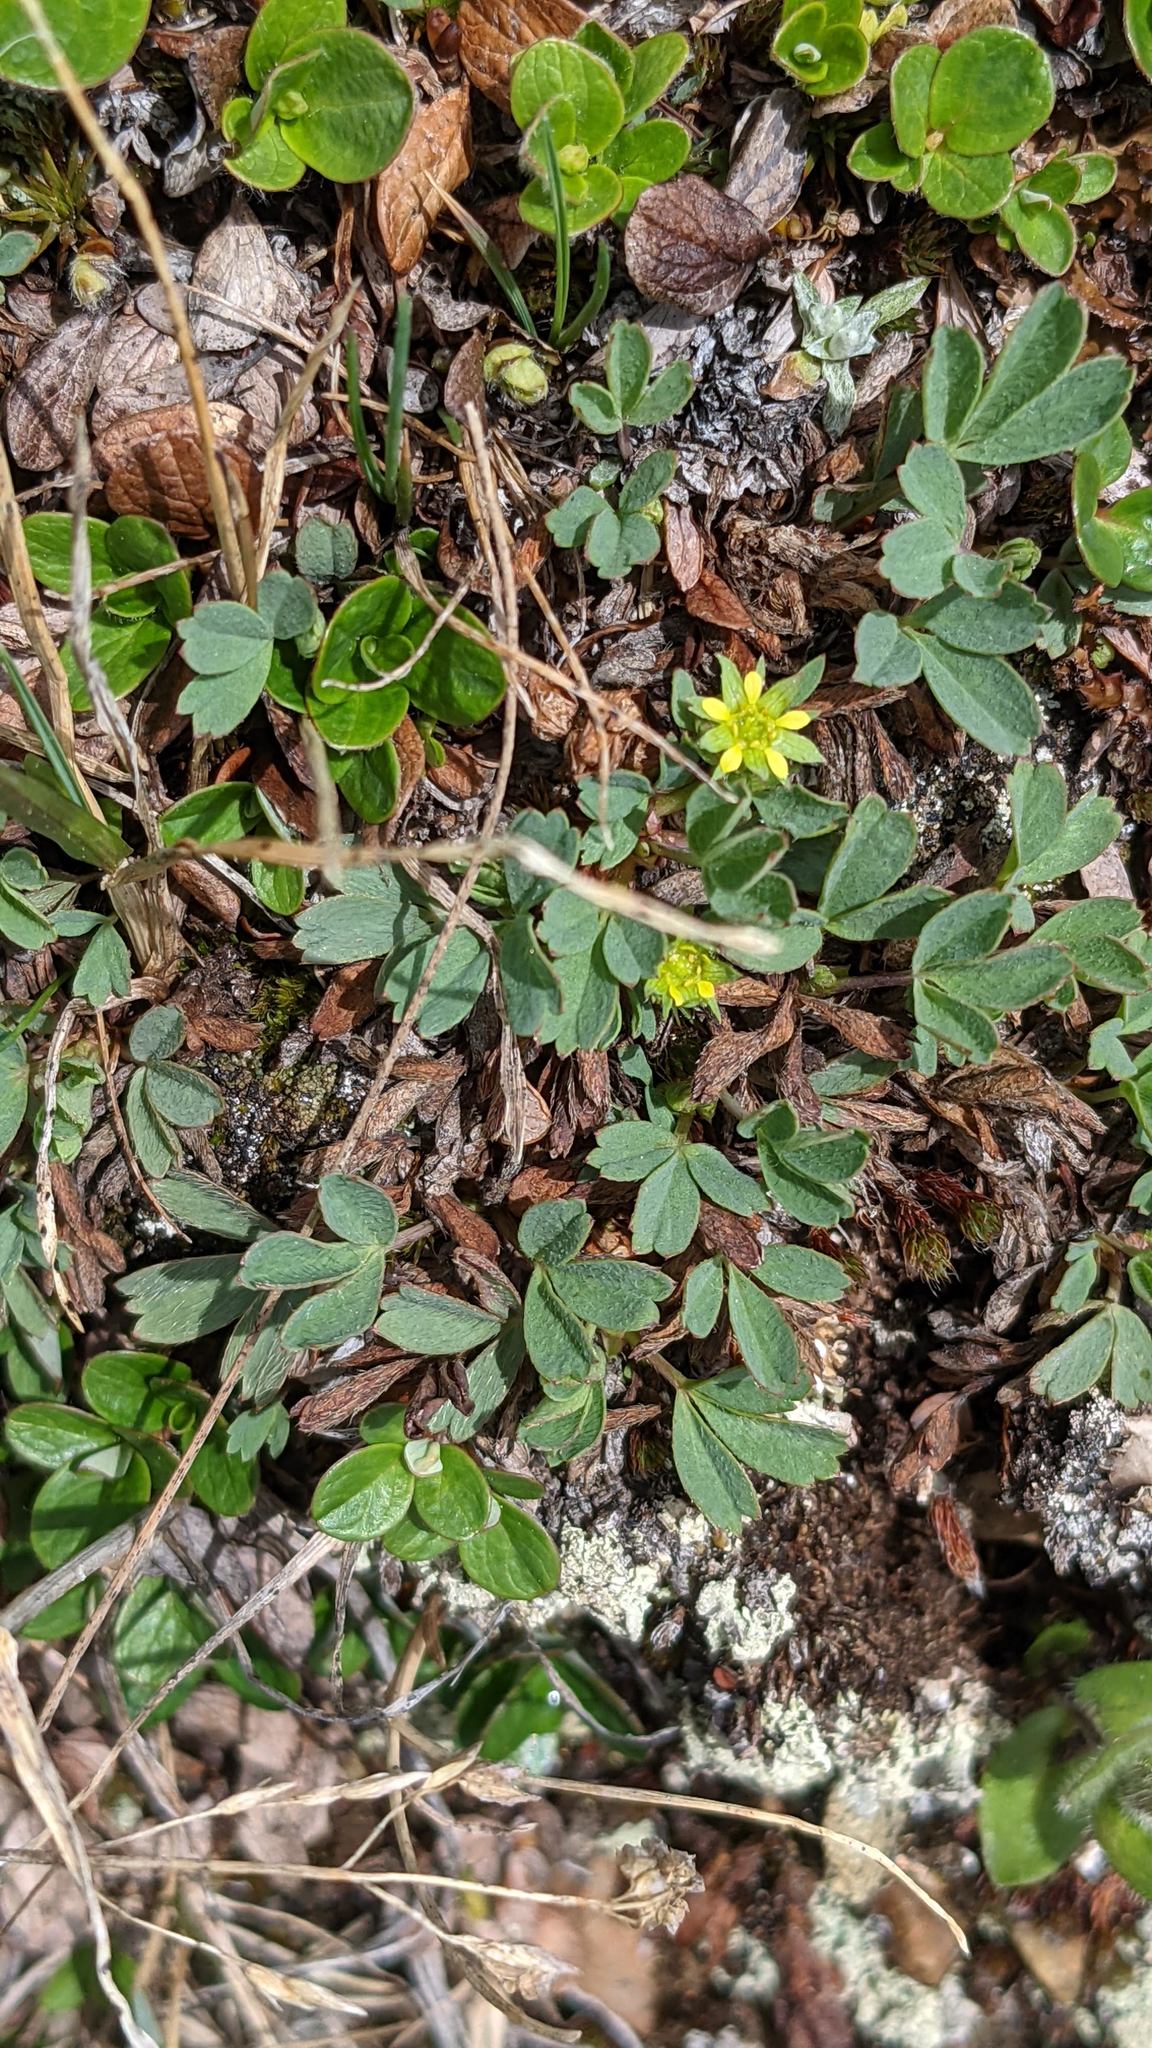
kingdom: Plantae
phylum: Tracheophyta
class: Magnoliopsida
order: Rosales
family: Rosaceae
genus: Sibbaldia
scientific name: Sibbaldia procumbens
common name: Creeping sibbaldia
